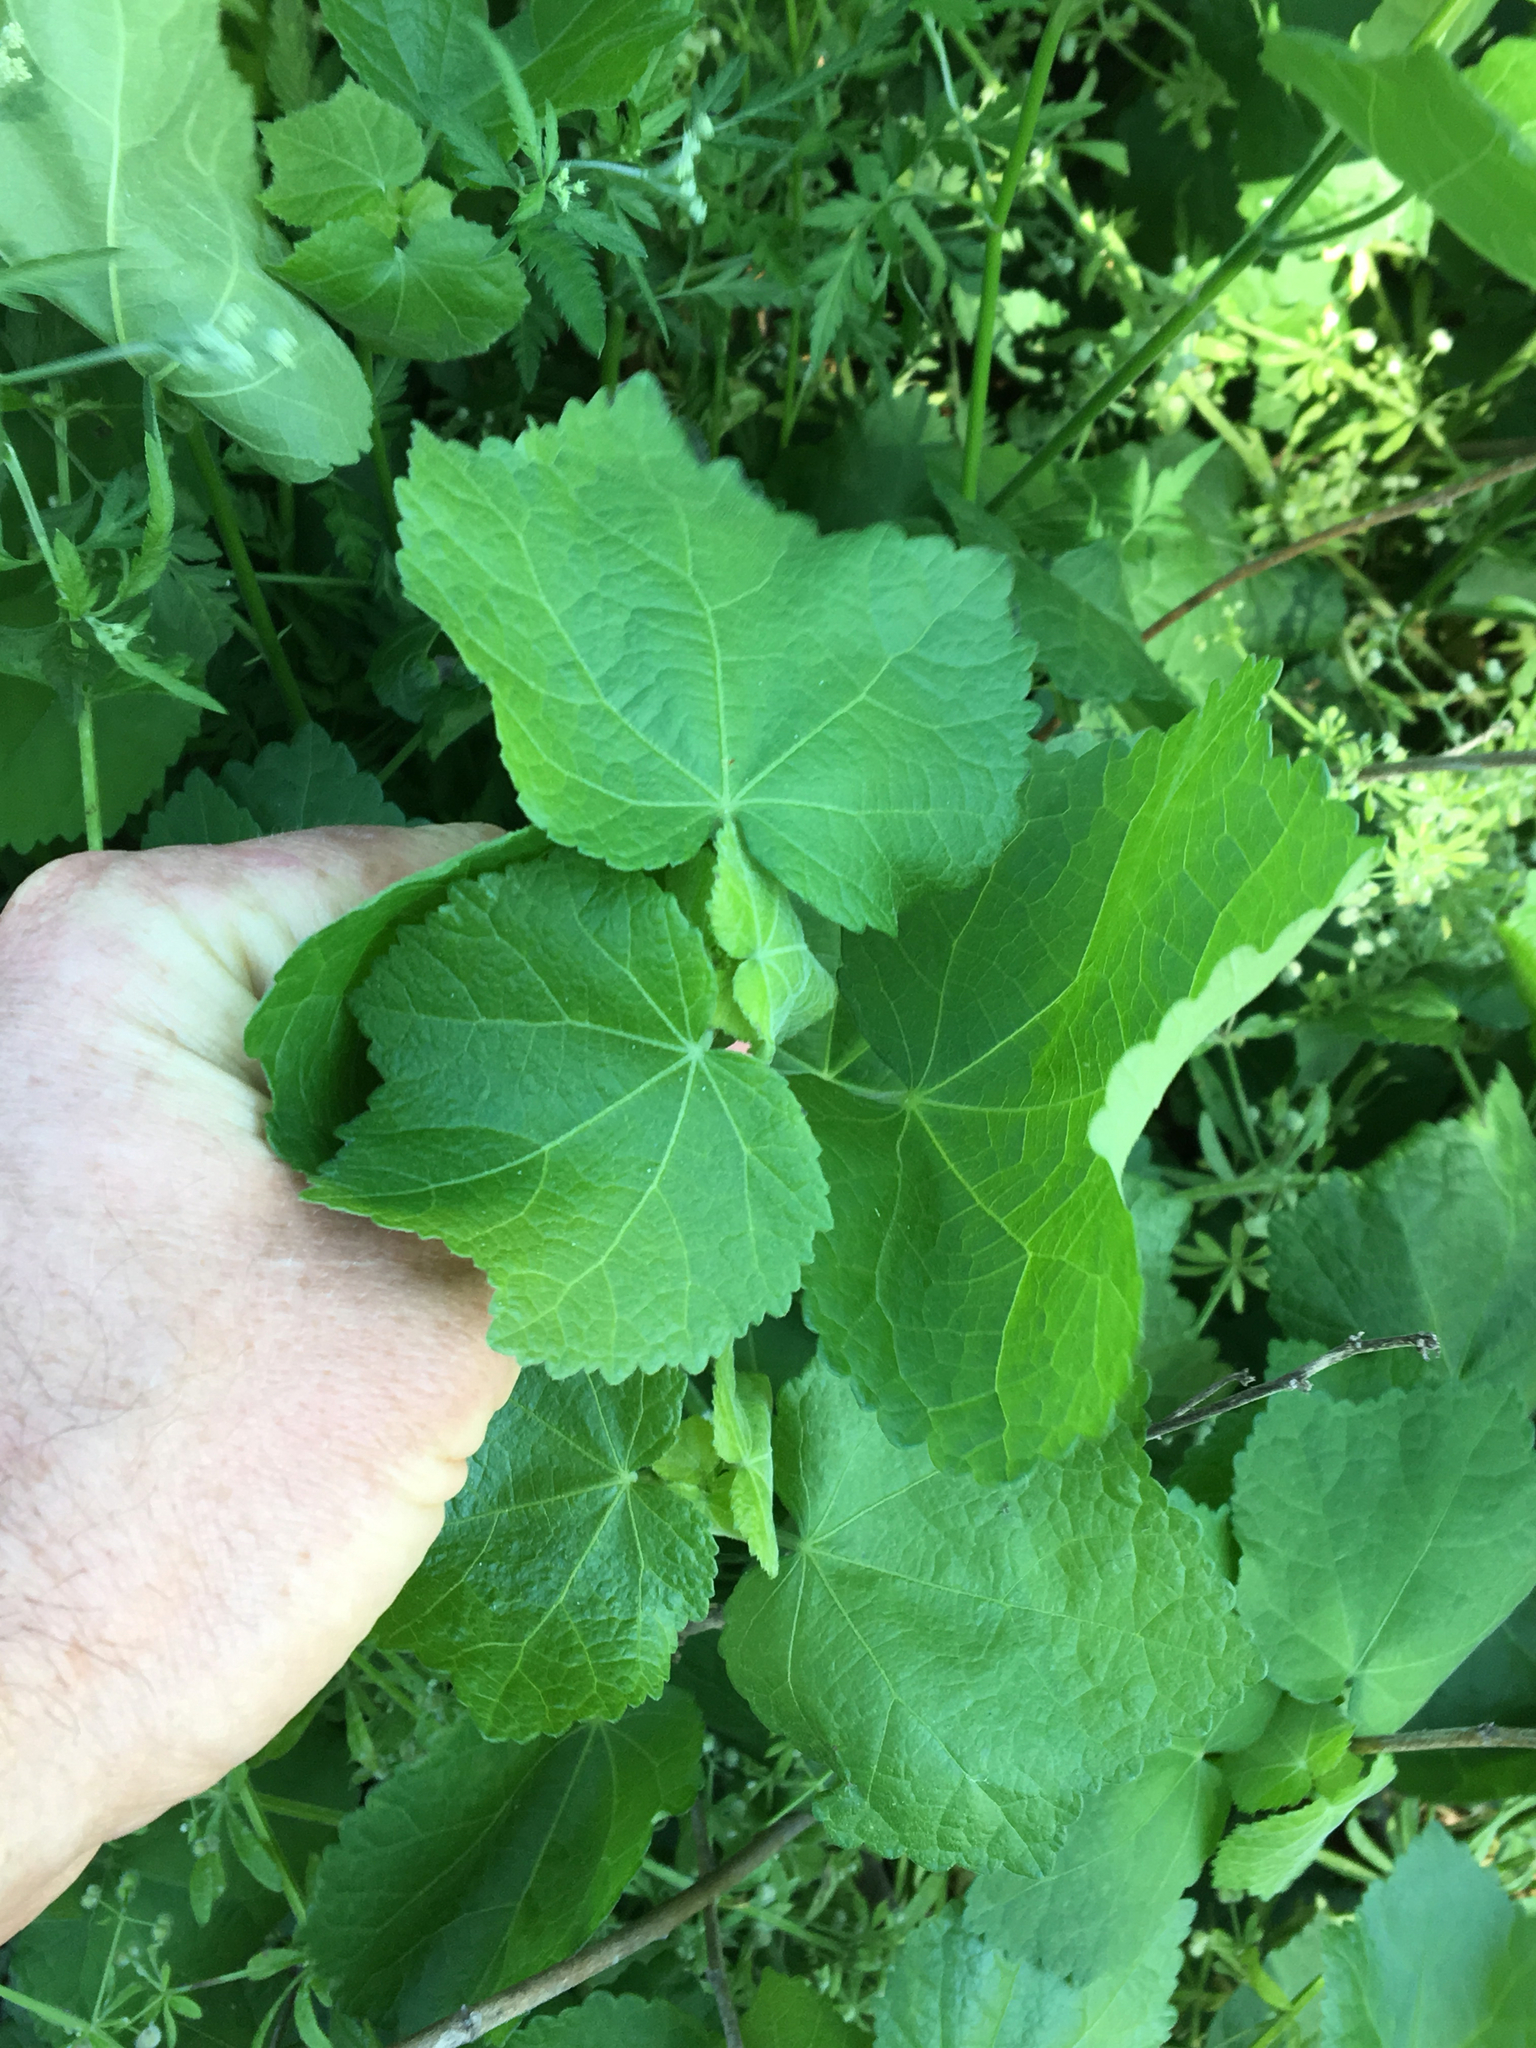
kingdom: Plantae
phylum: Tracheophyta
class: Magnoliopsida
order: Malvales
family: Malvaceae
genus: Malvaviscus
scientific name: Malvaviscus arboreus
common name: Wax mallow
